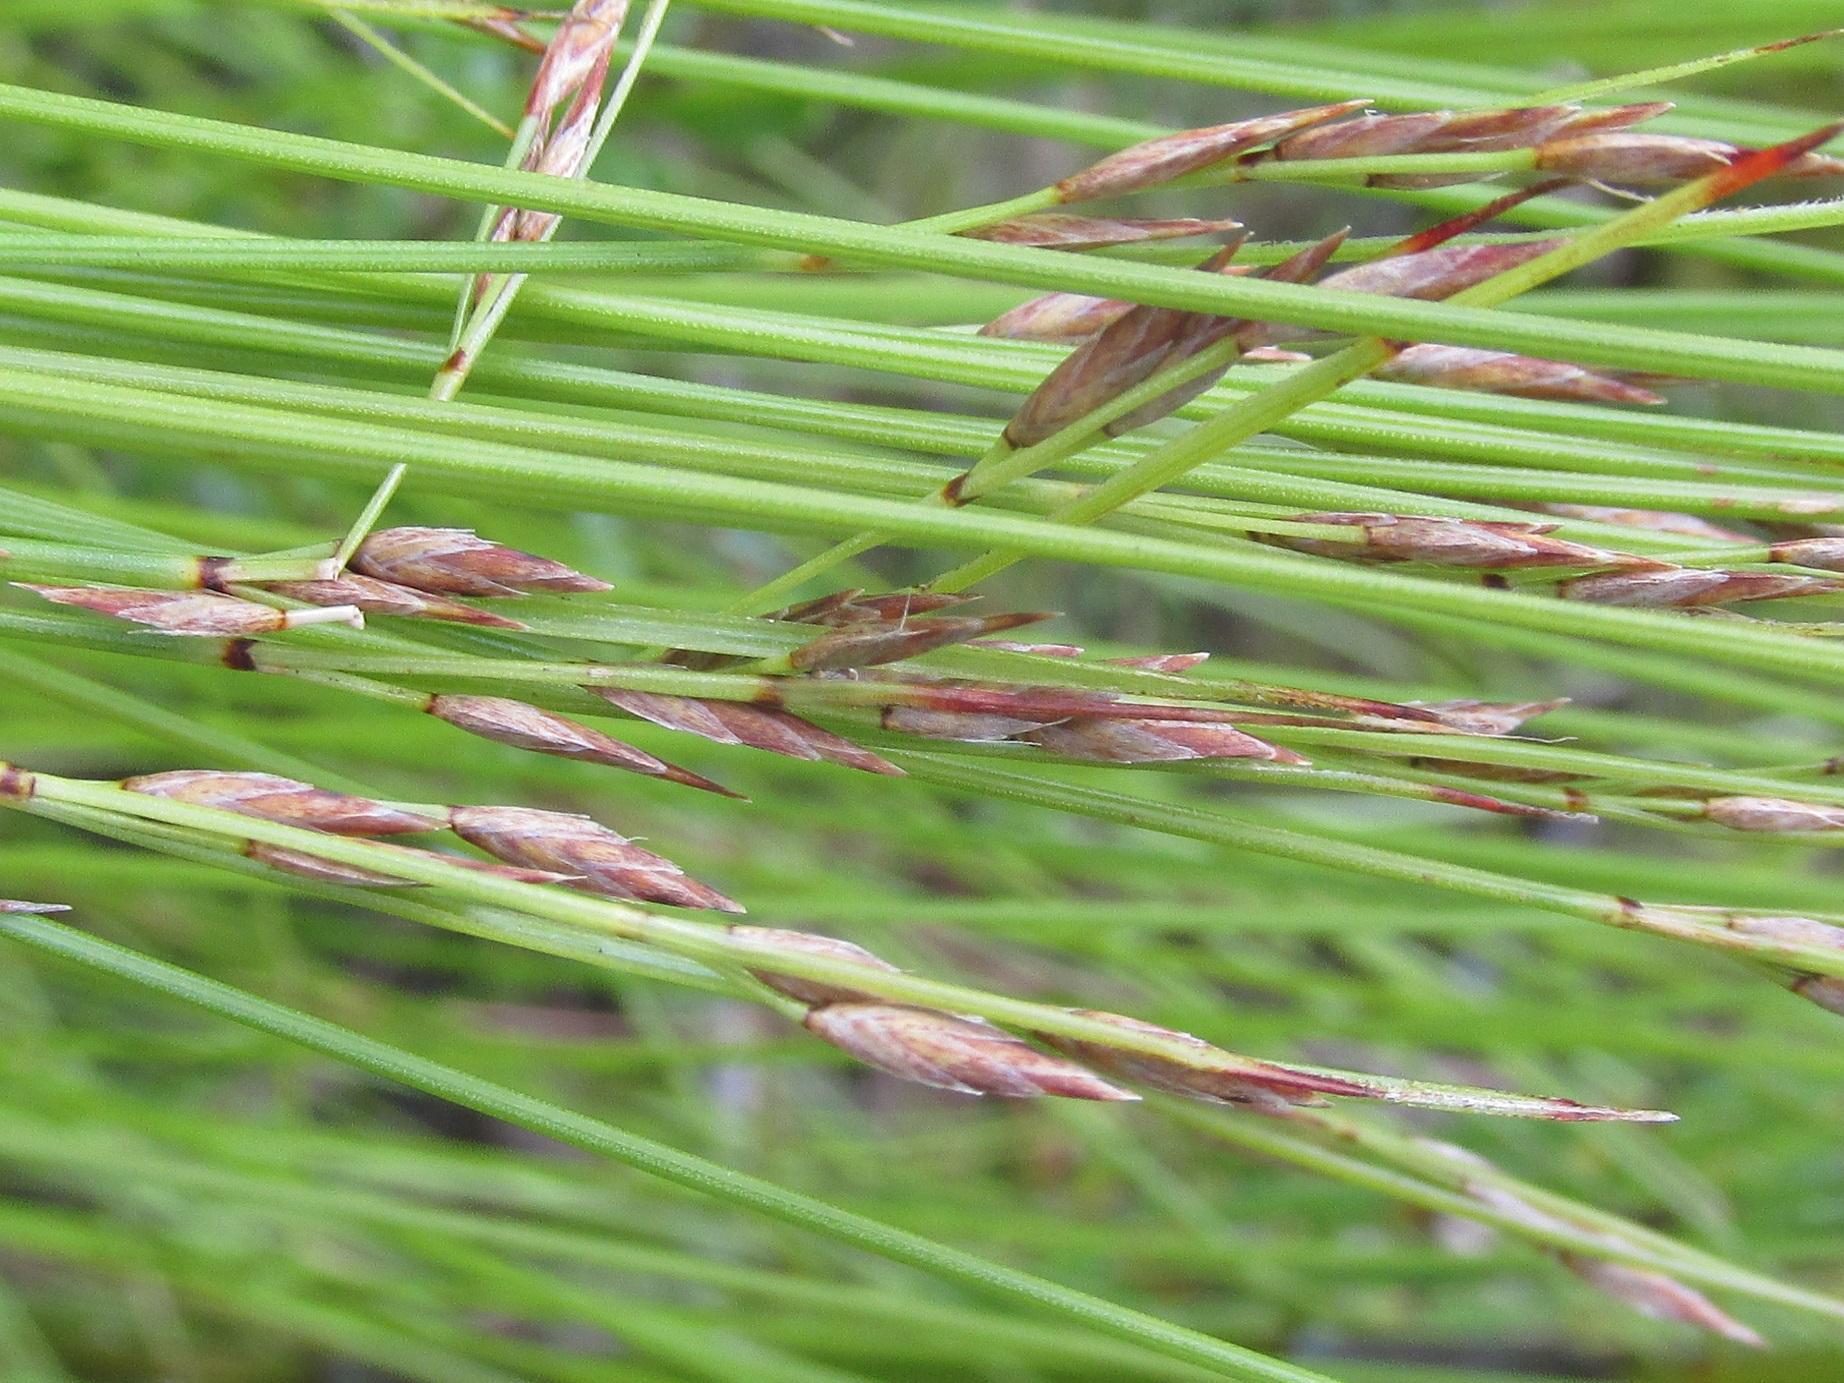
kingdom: Plantae
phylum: Tracheophyta
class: Liliopsida
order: Poales
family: Cyperaceae
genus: Schoenus
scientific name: Schoenus schonlandii
